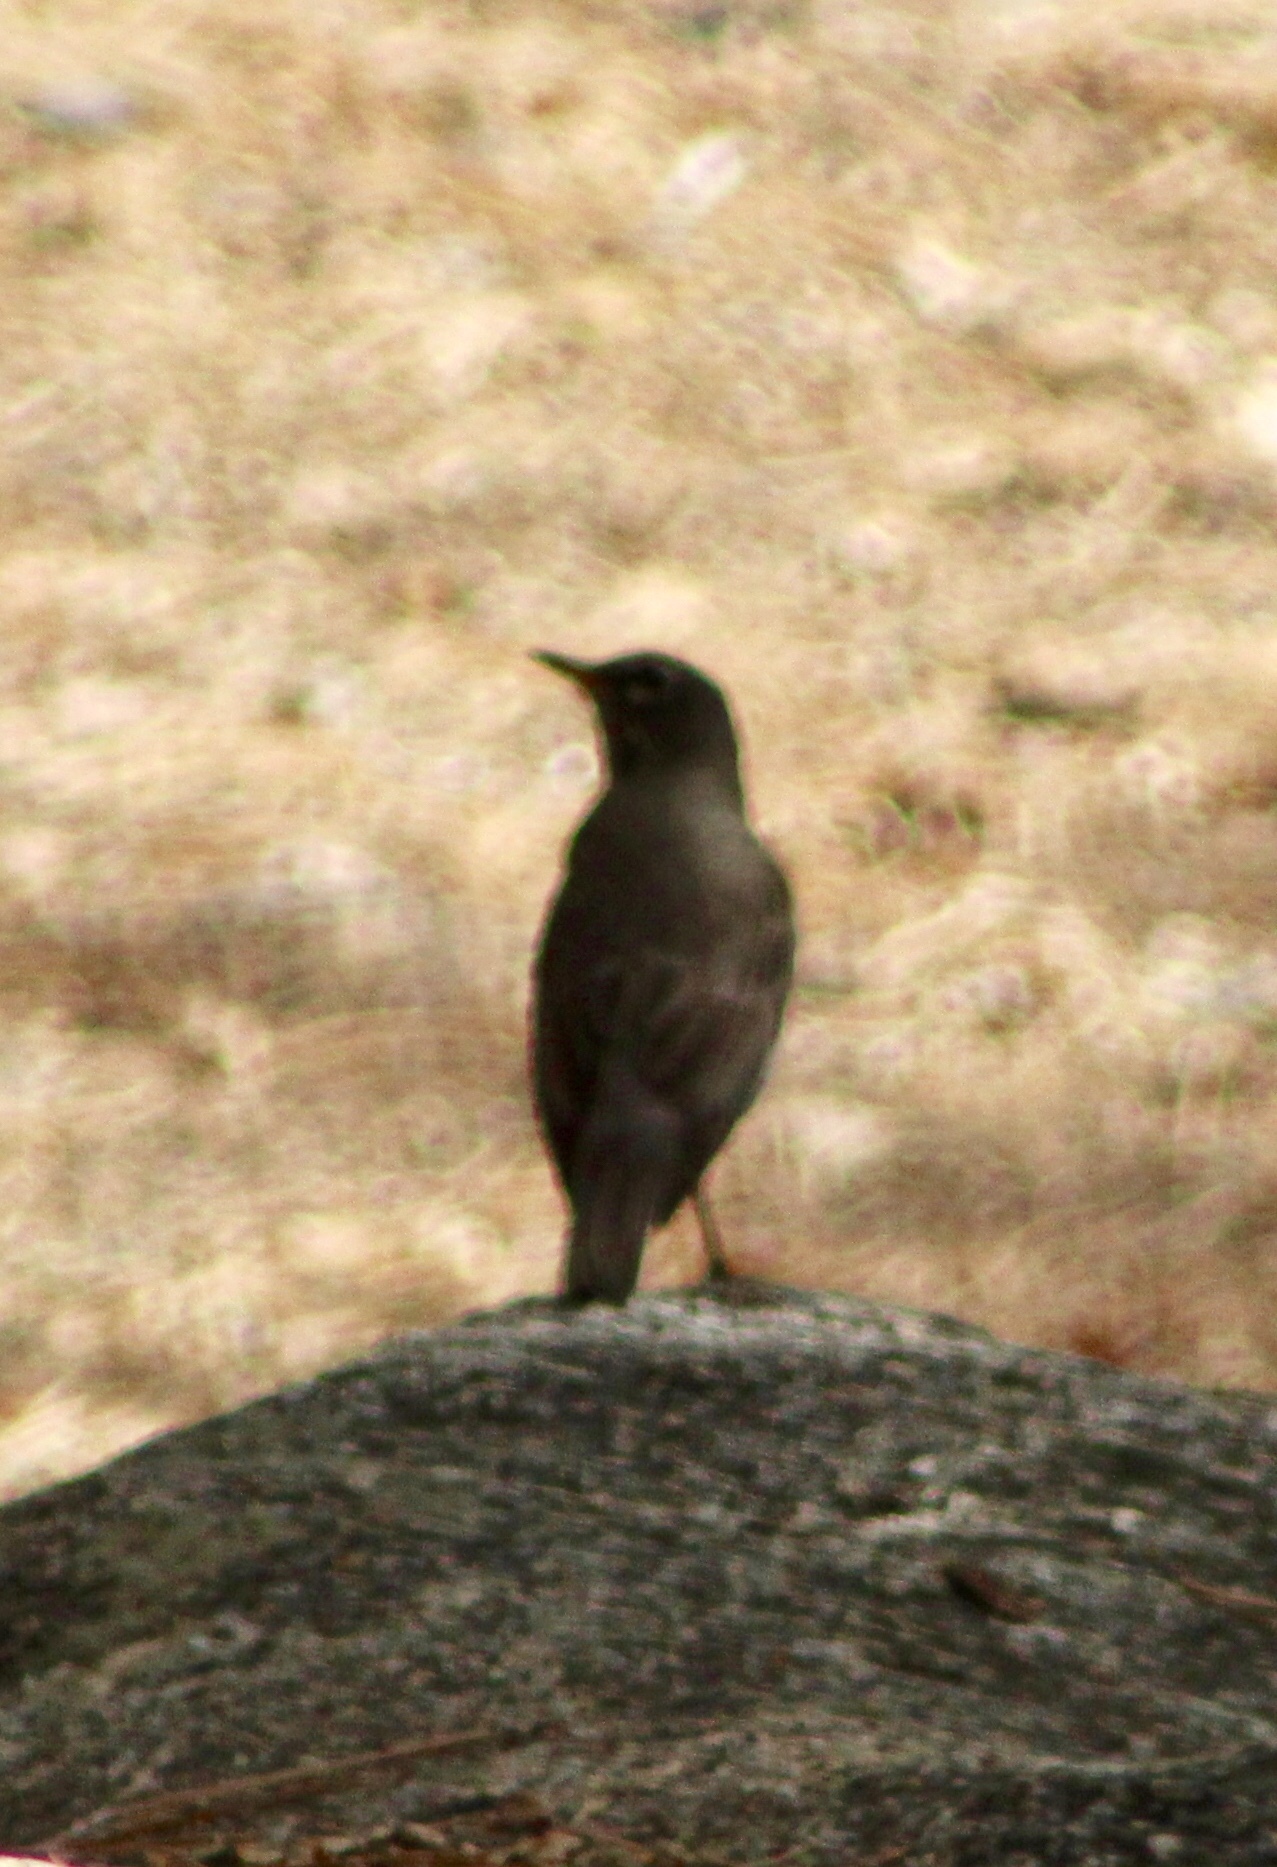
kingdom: Animalia
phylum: Chordata
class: Aves
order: Passeriformes
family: Turdidae
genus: Turdus
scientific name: Turdus migratorius
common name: American robin
